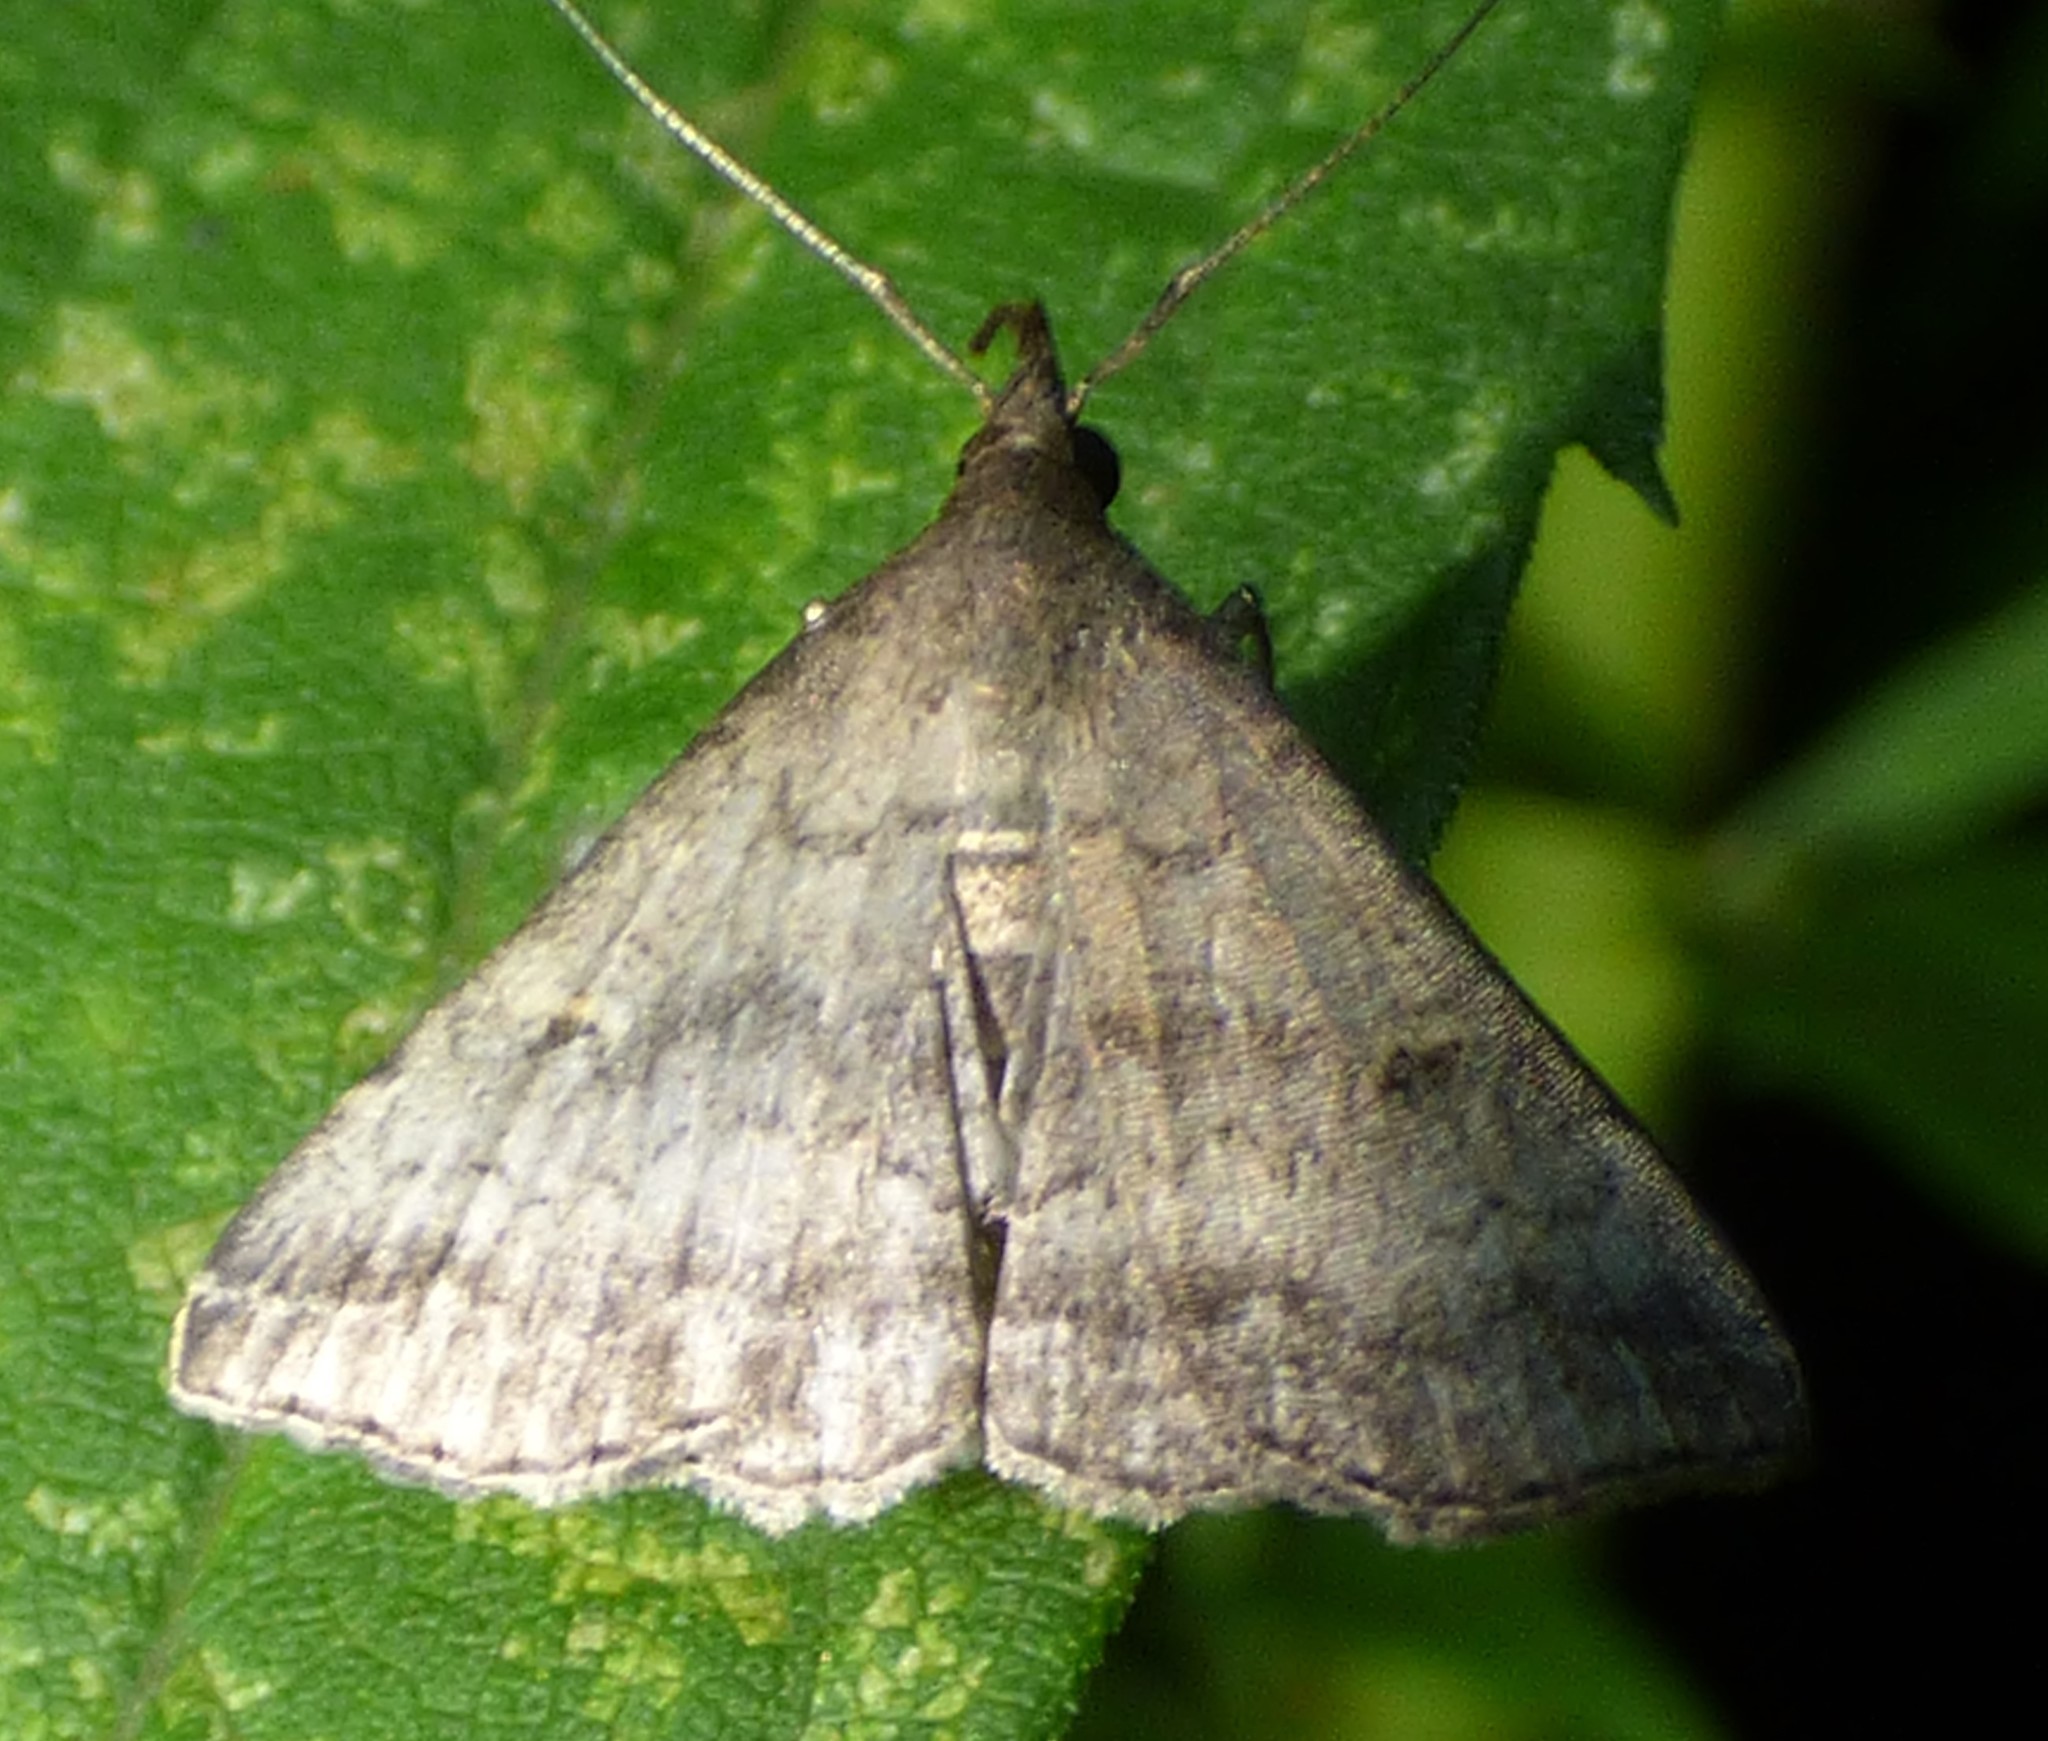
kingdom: Animalia
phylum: Arthropoda
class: Insecta
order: Lepidoptera
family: Erebidae
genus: Tetanolita
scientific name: Tetanolita floridana
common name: Florida tetanolita moth
